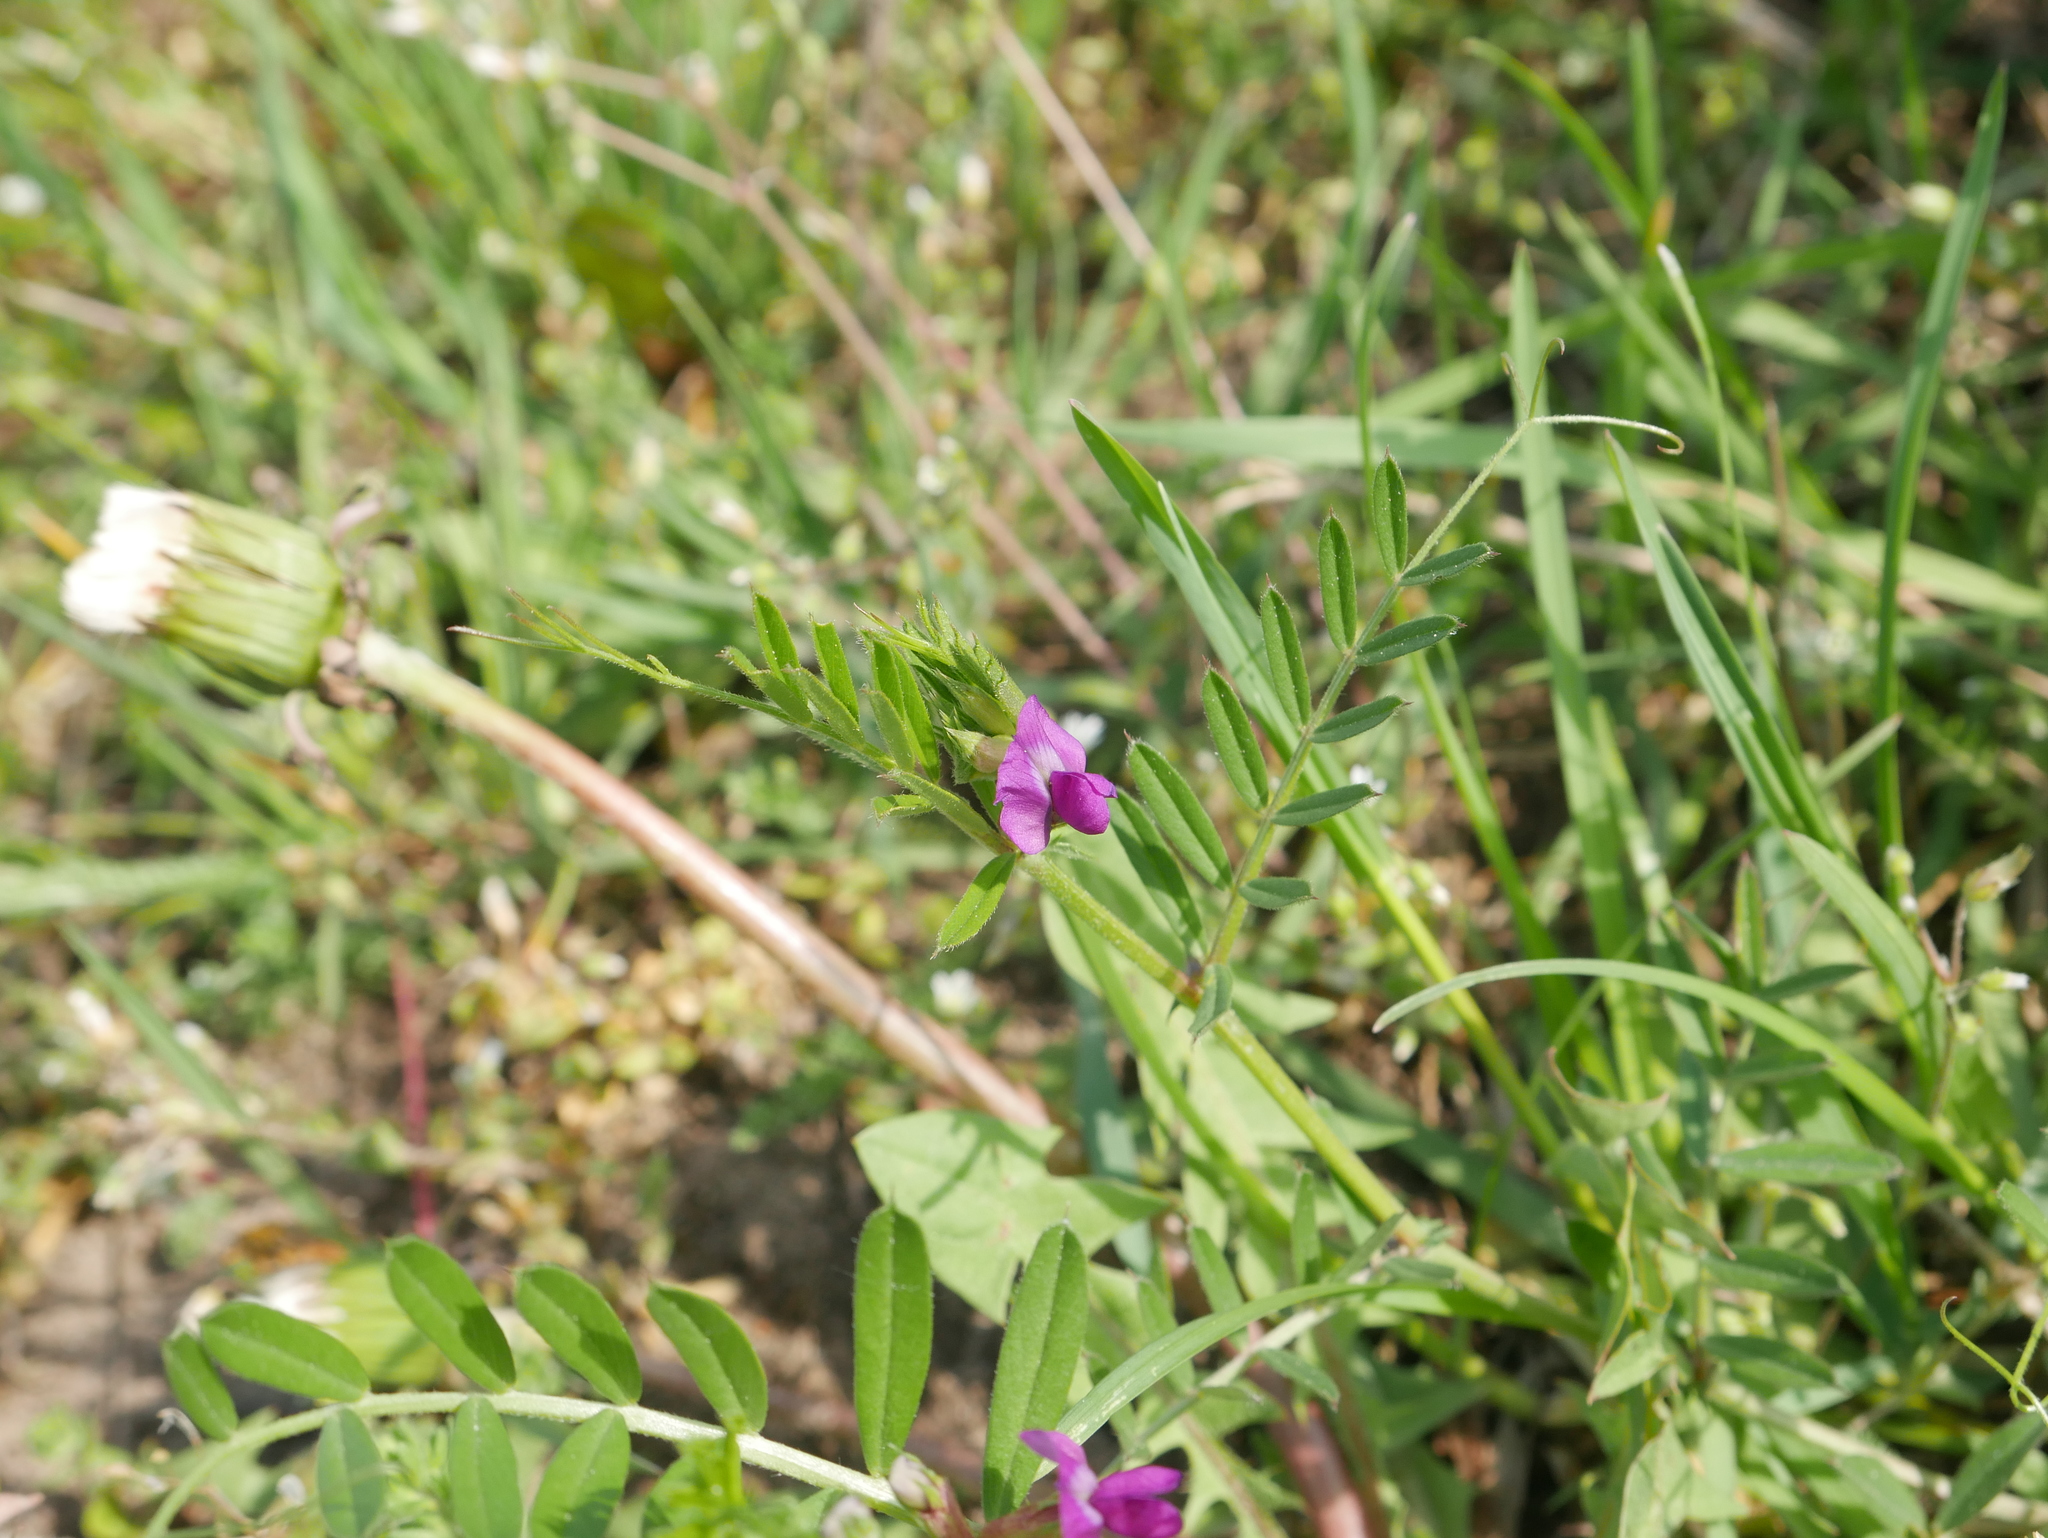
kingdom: Plantae
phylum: Tracheophyta
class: Magnoliopsida
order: Fabales
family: Fabaceae
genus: Vicia
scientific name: Vicia sativa
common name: Garden vetch
